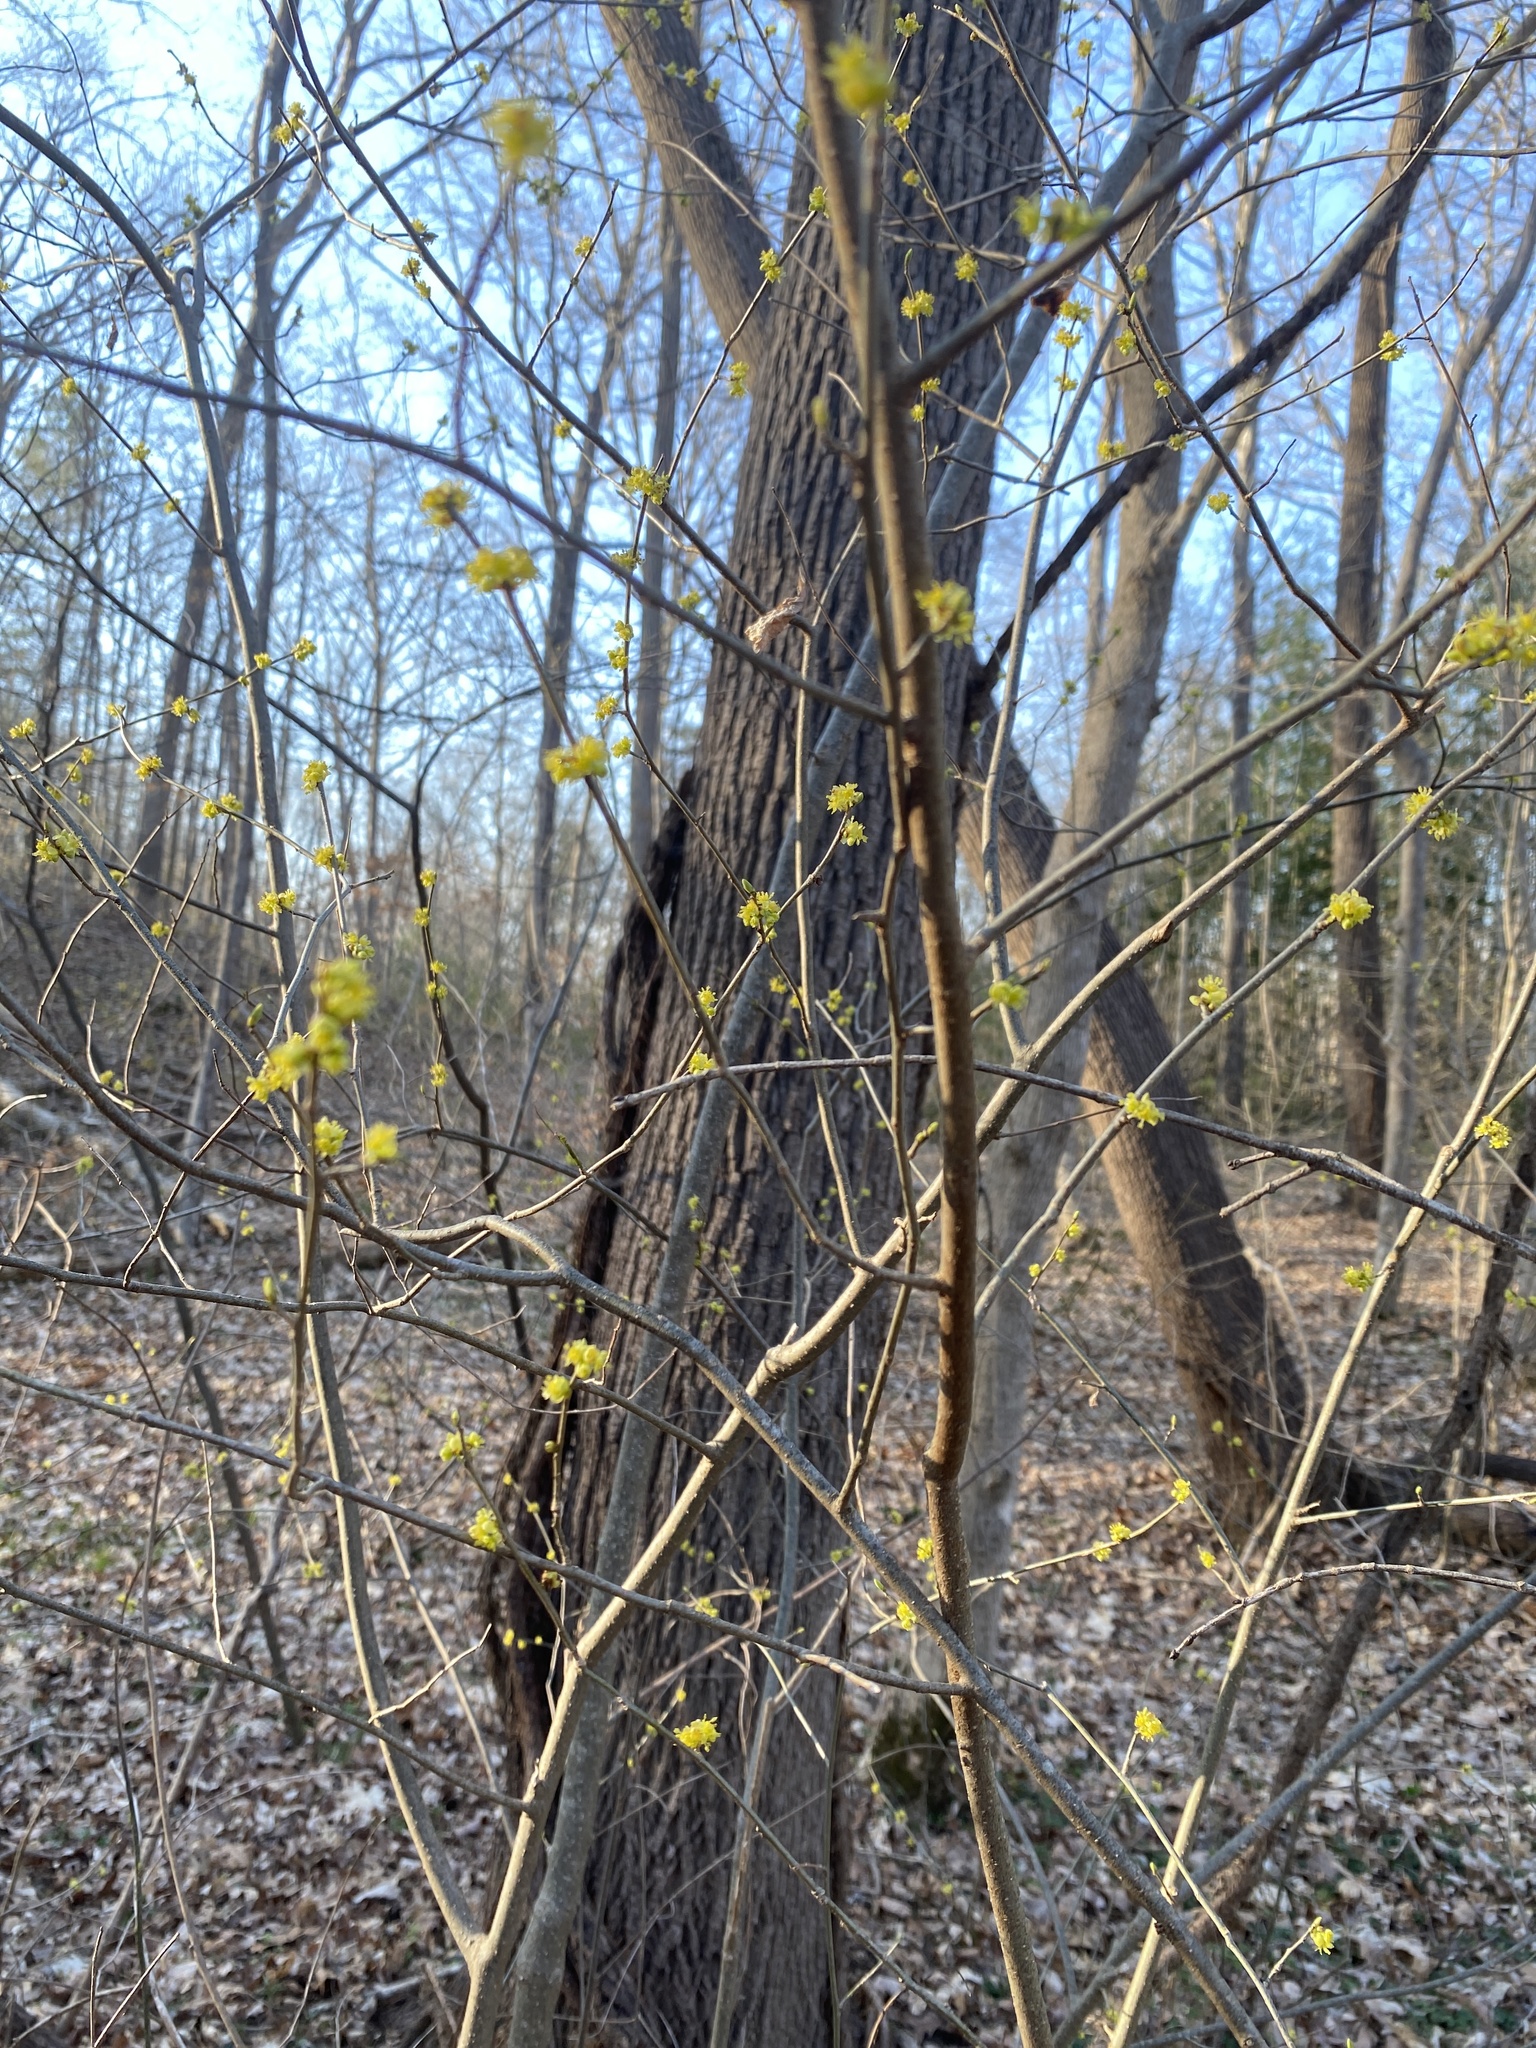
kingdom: Plantae
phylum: Tracheophyta
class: Magnoliopsida
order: Laurales
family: Lauraceae
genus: Lindera
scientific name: Lindera benzoin
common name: Spicebush
